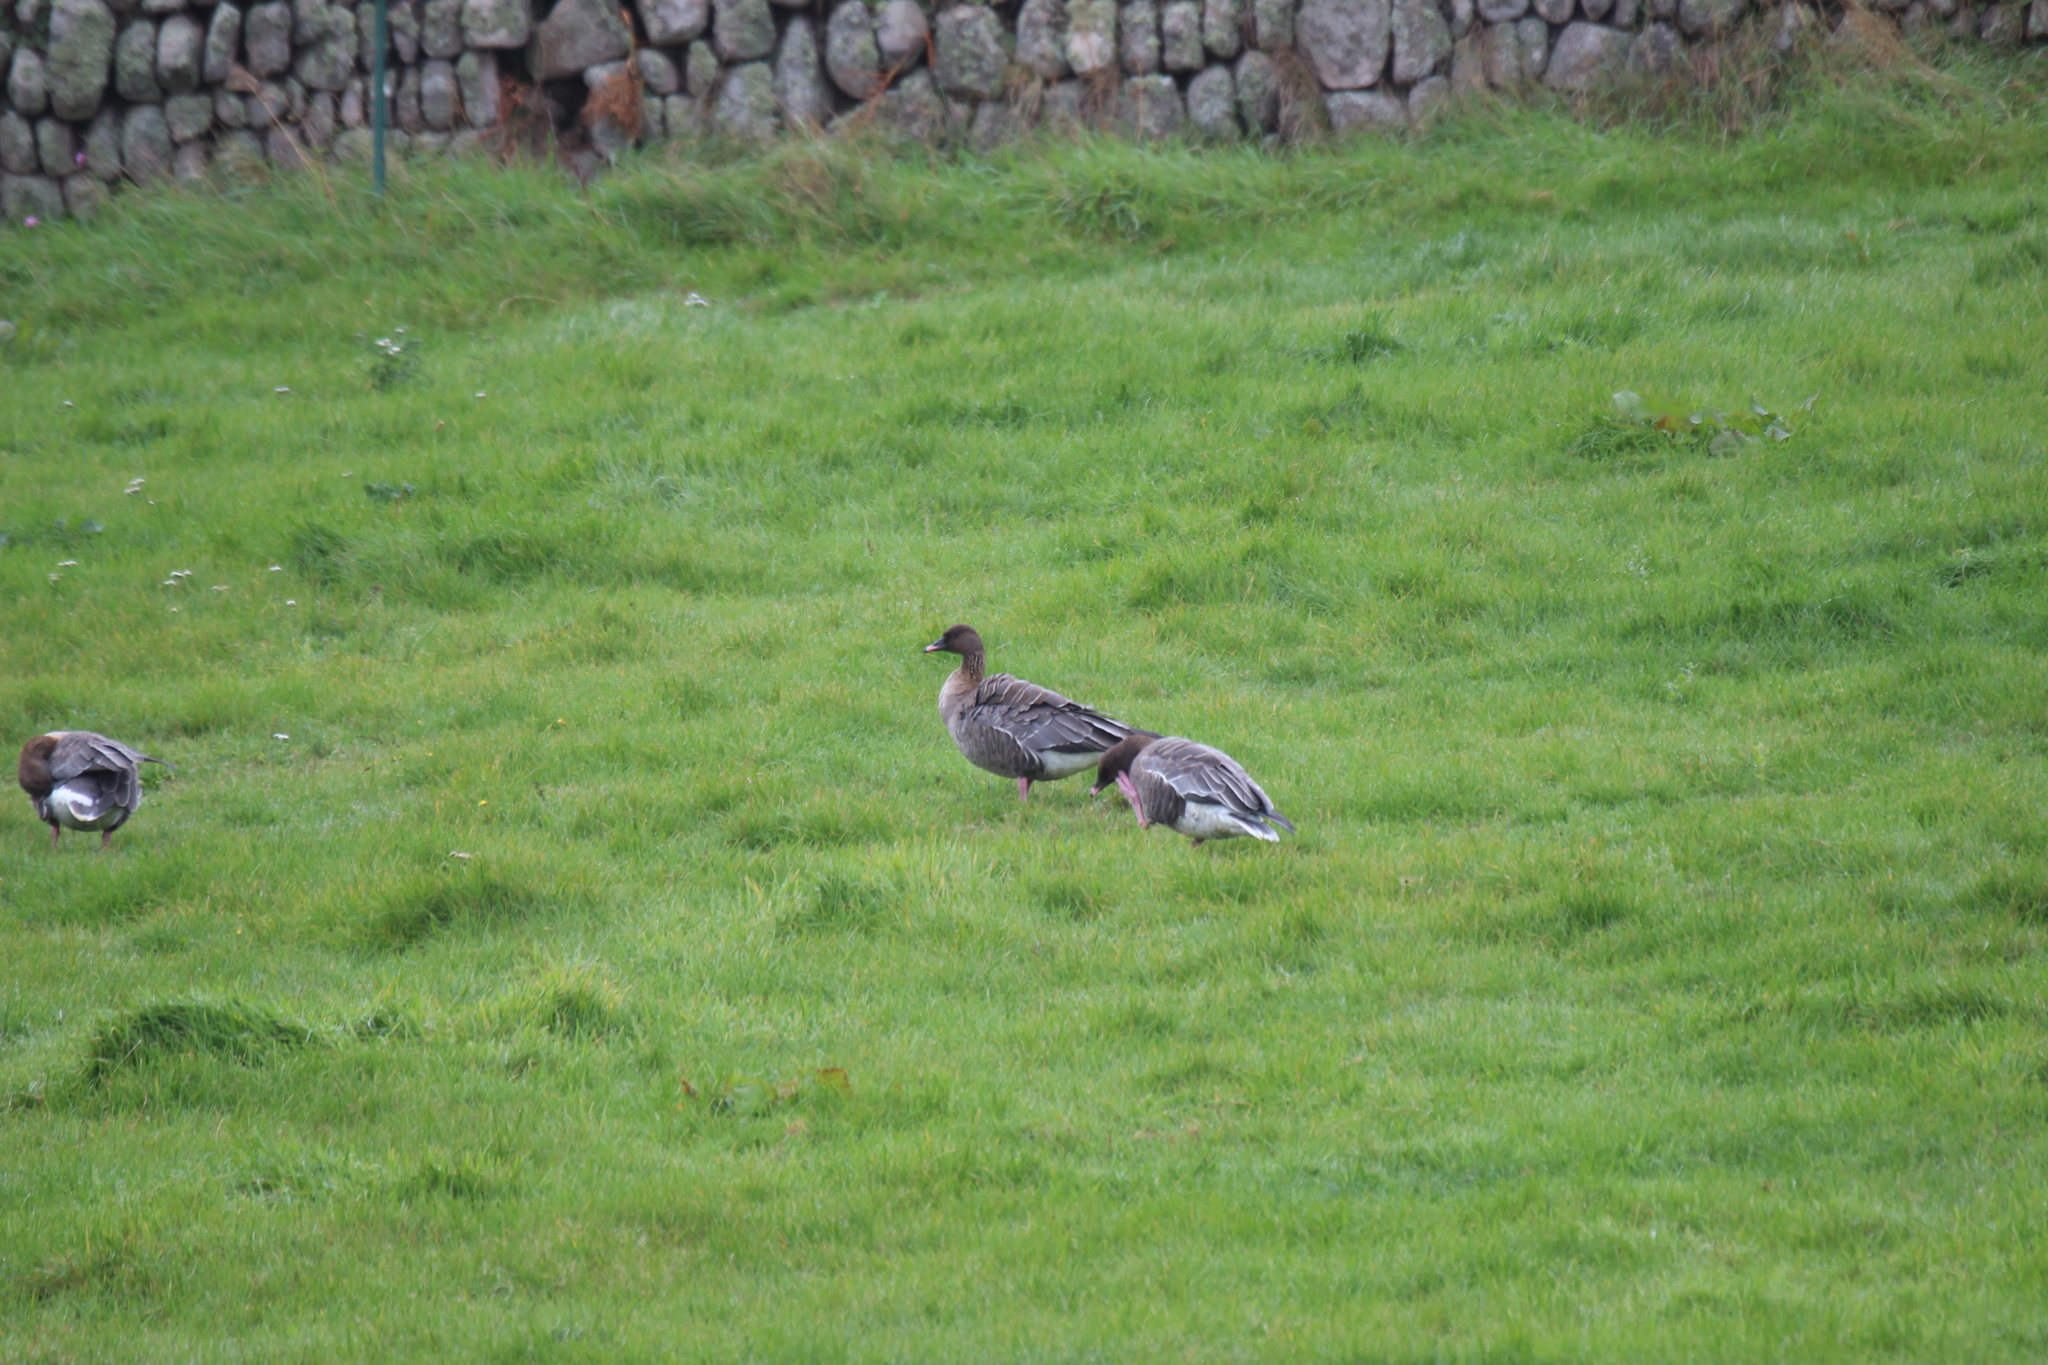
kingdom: Animalia
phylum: Chordata
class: Aves
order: Anseriformes
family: Anatidae
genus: Anser
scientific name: Anser brachyrhynchus
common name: Pink-footed goose
